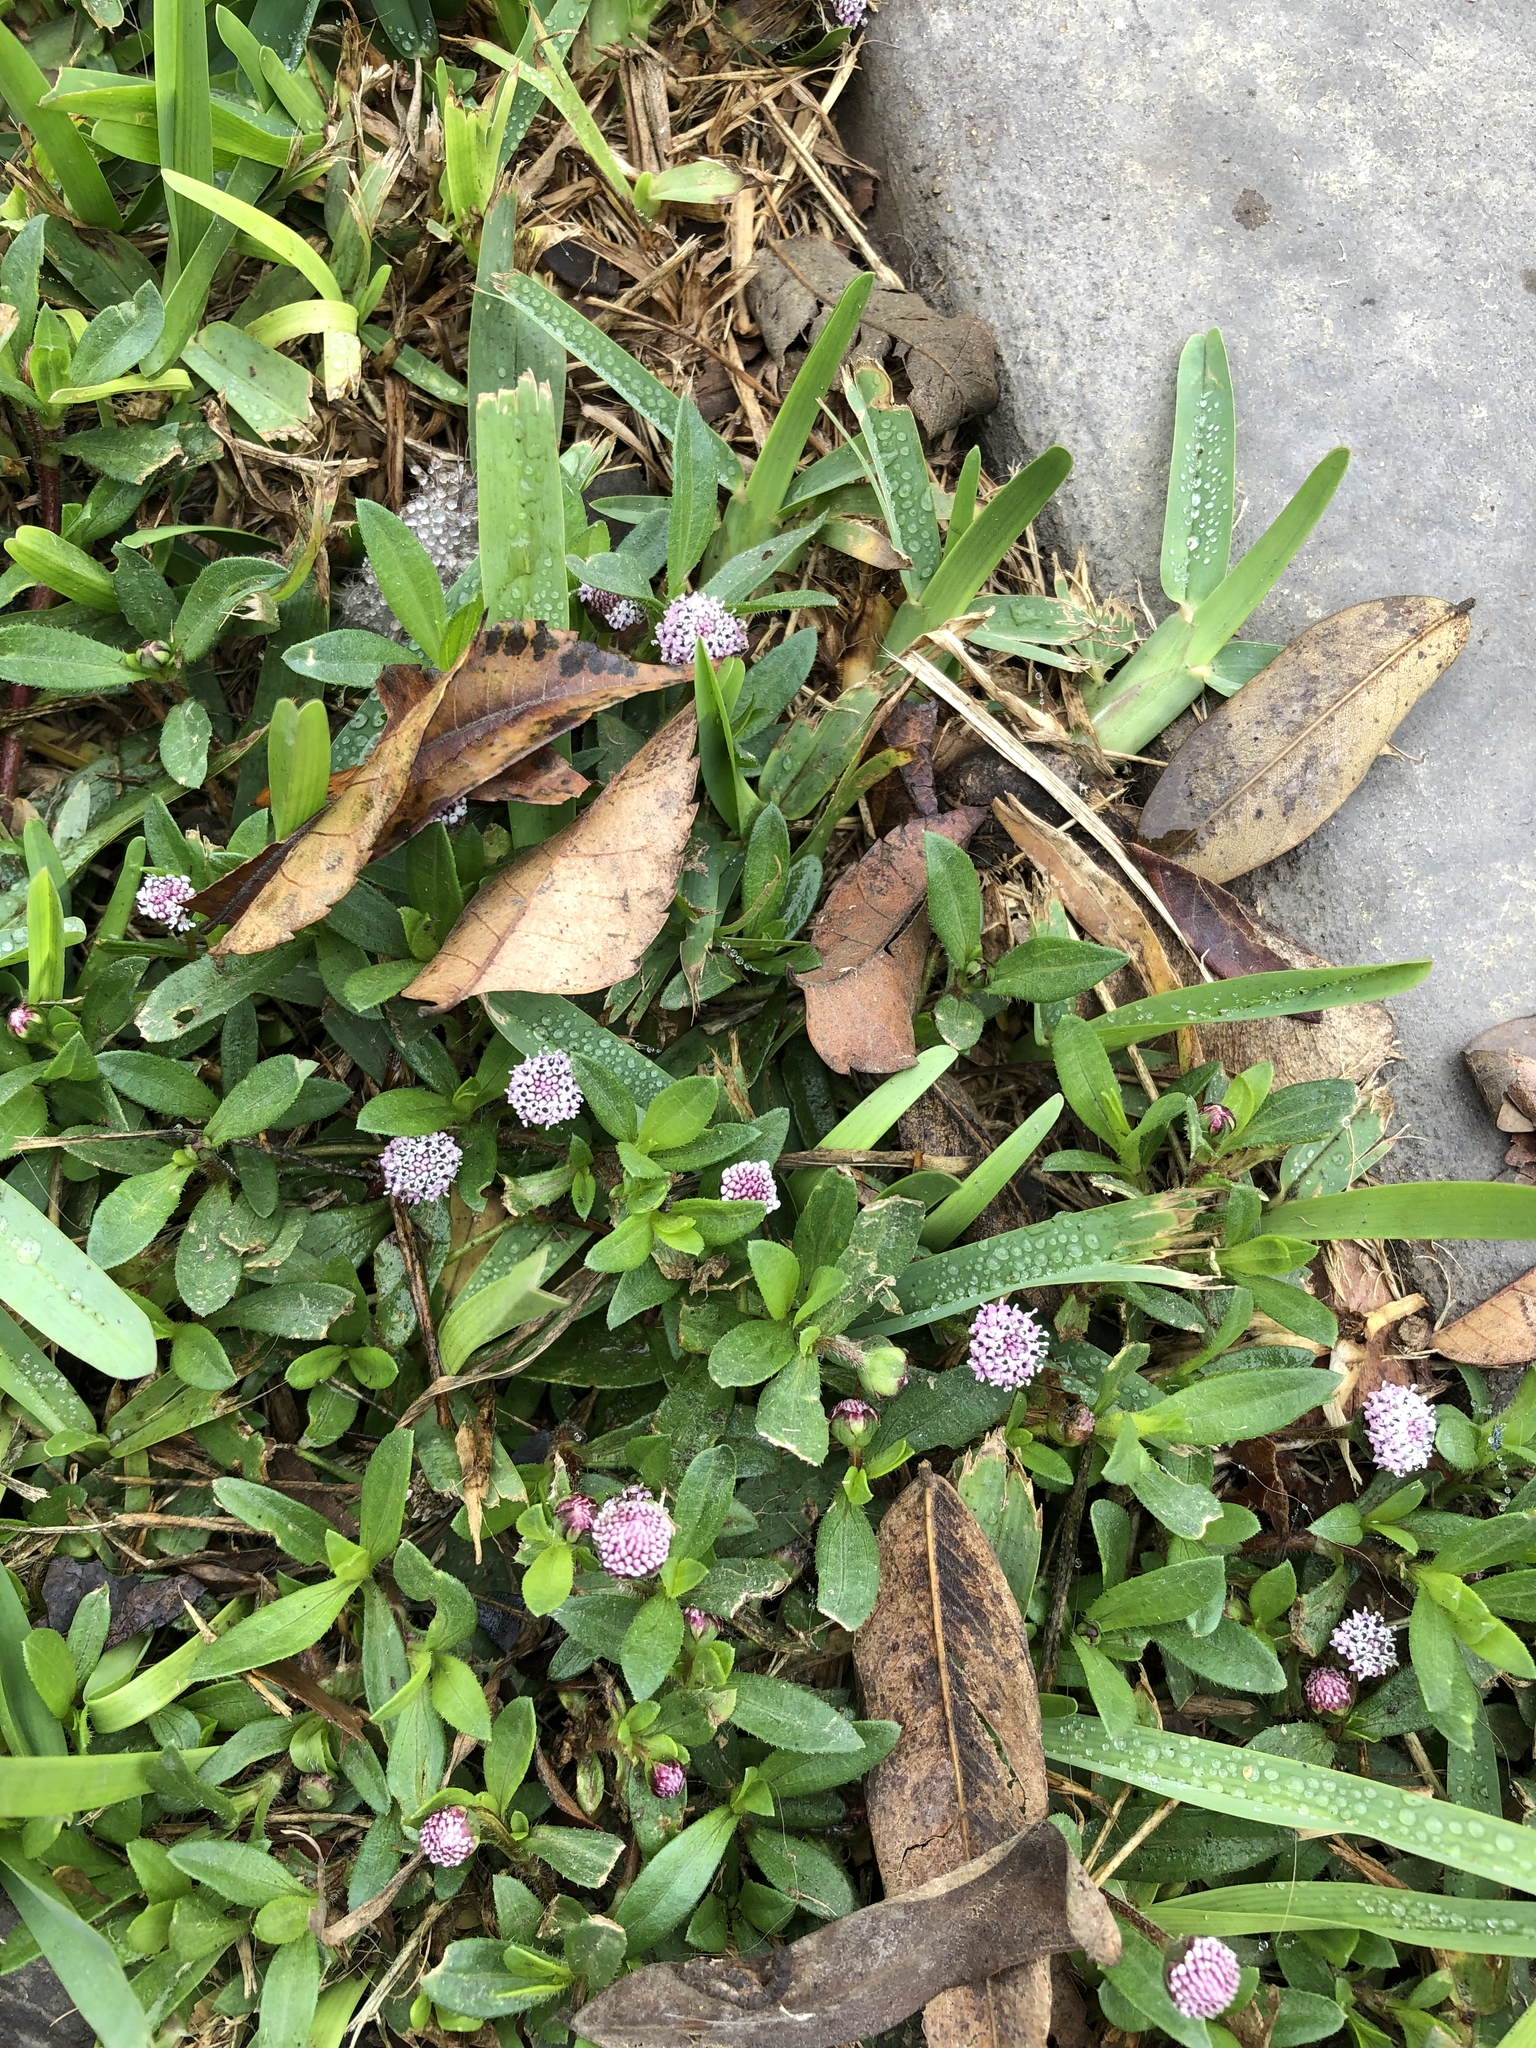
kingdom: Plantae
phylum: Tracheophyta
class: Magnoliopsida
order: Asterales
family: Asteraceae
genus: Spilanthes
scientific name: Spilanthes leiocarpa
